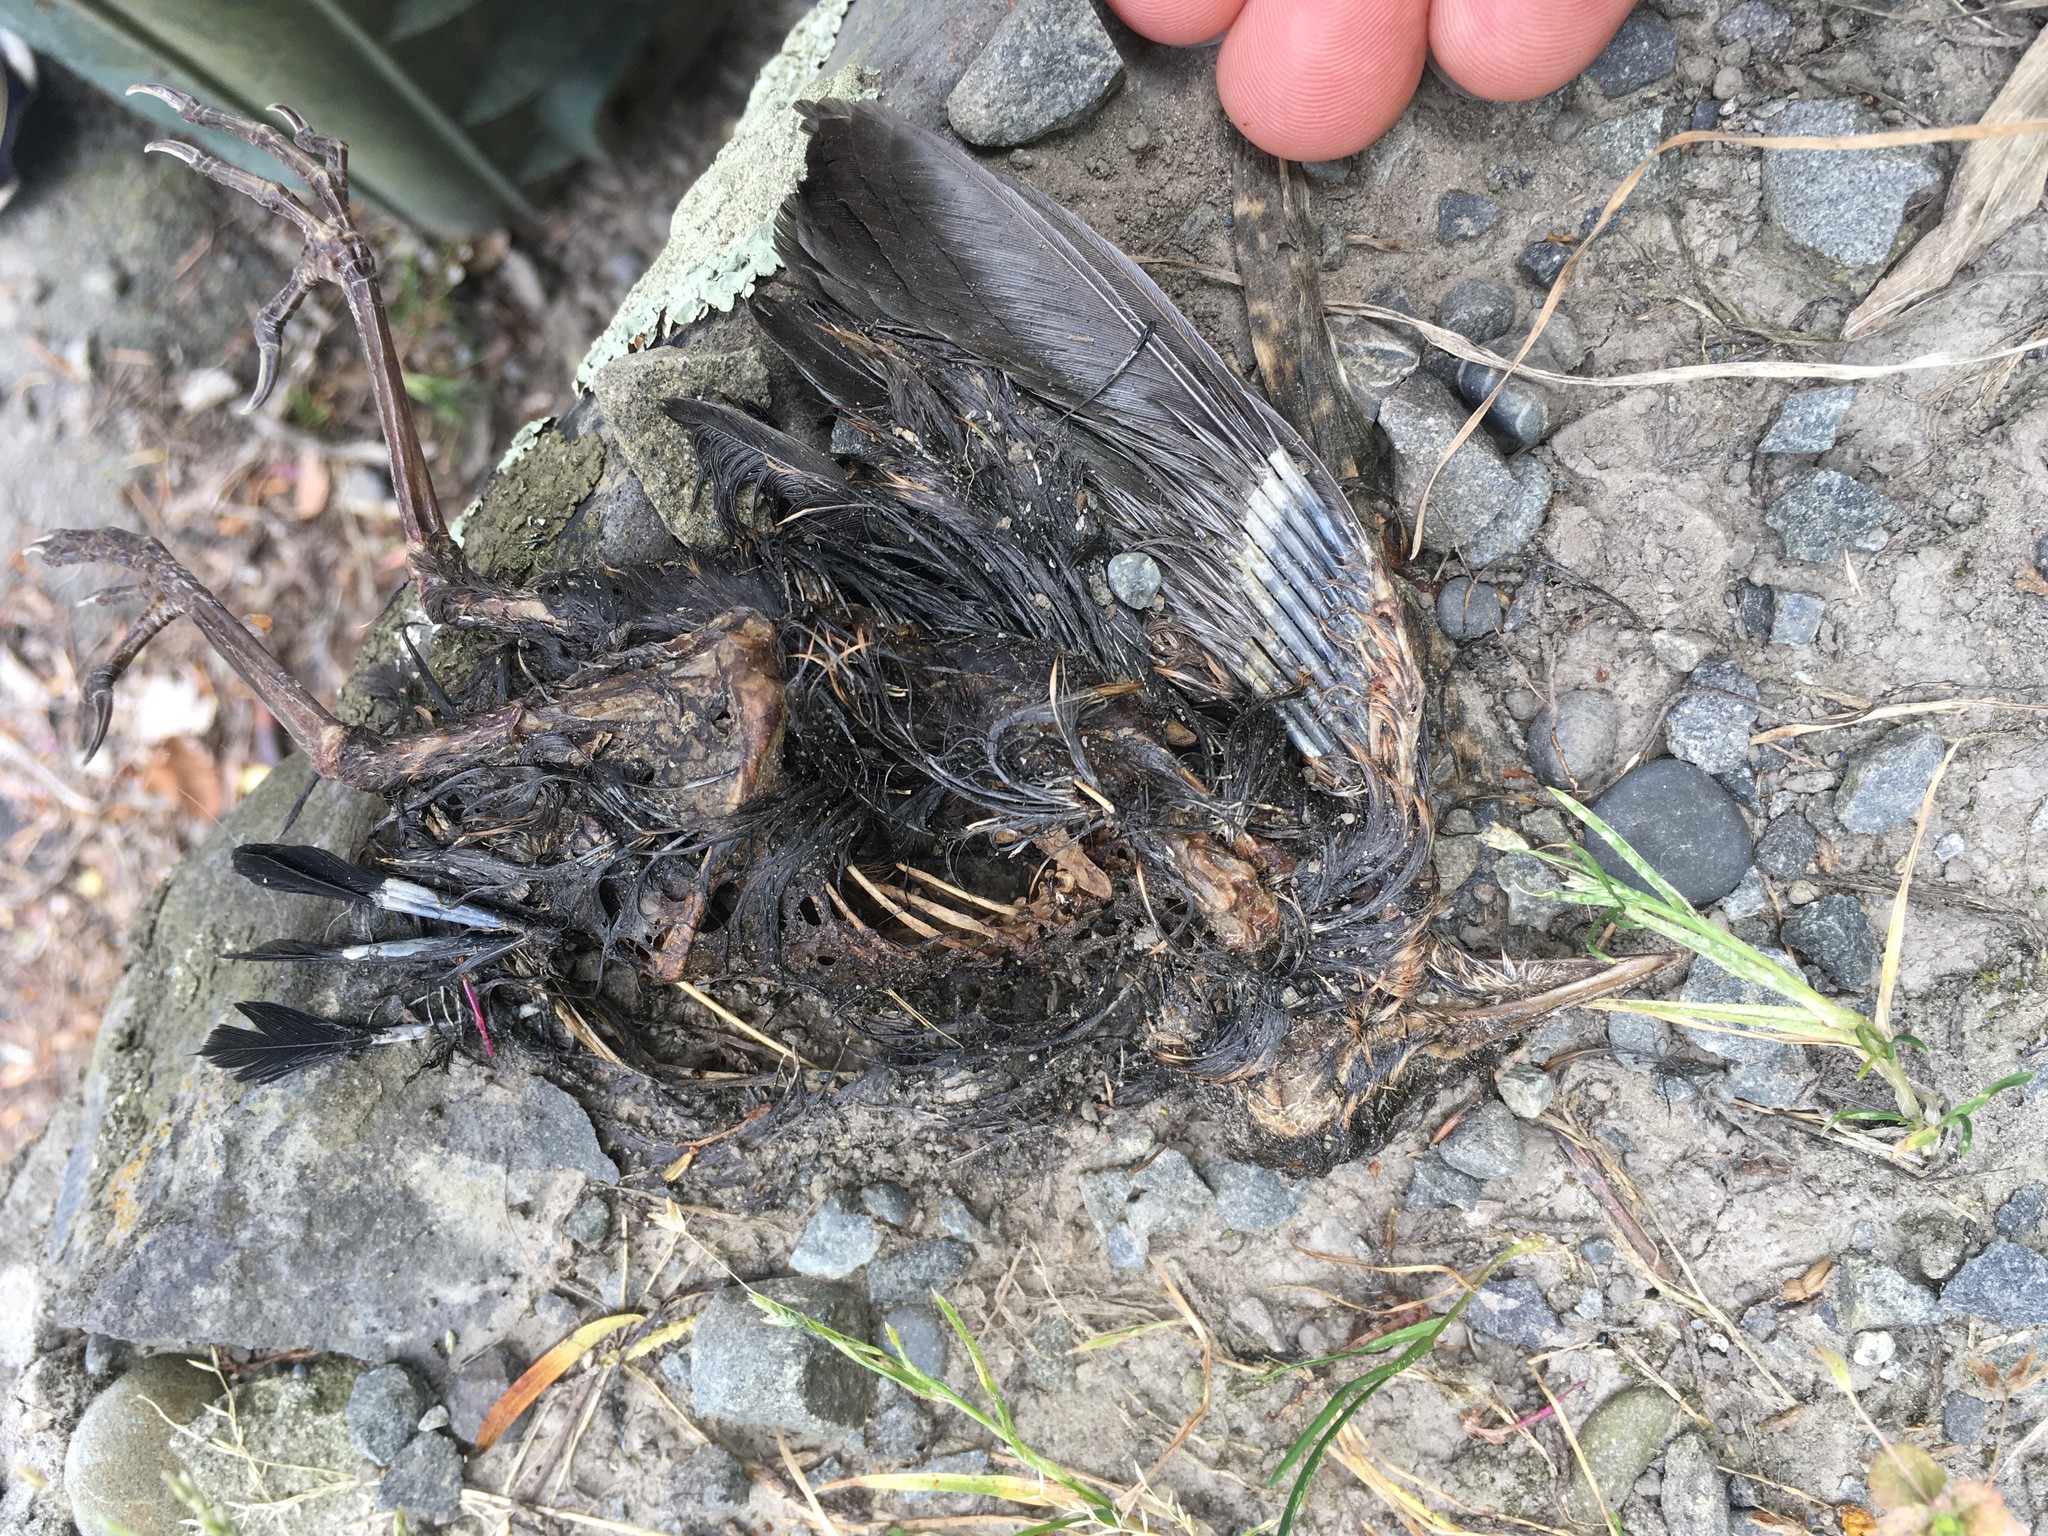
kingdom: Animalia
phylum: Chordata
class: Aves
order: Passeriformes
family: Turdidae
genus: Turdus
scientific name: Turdus merula
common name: Common blackbird
